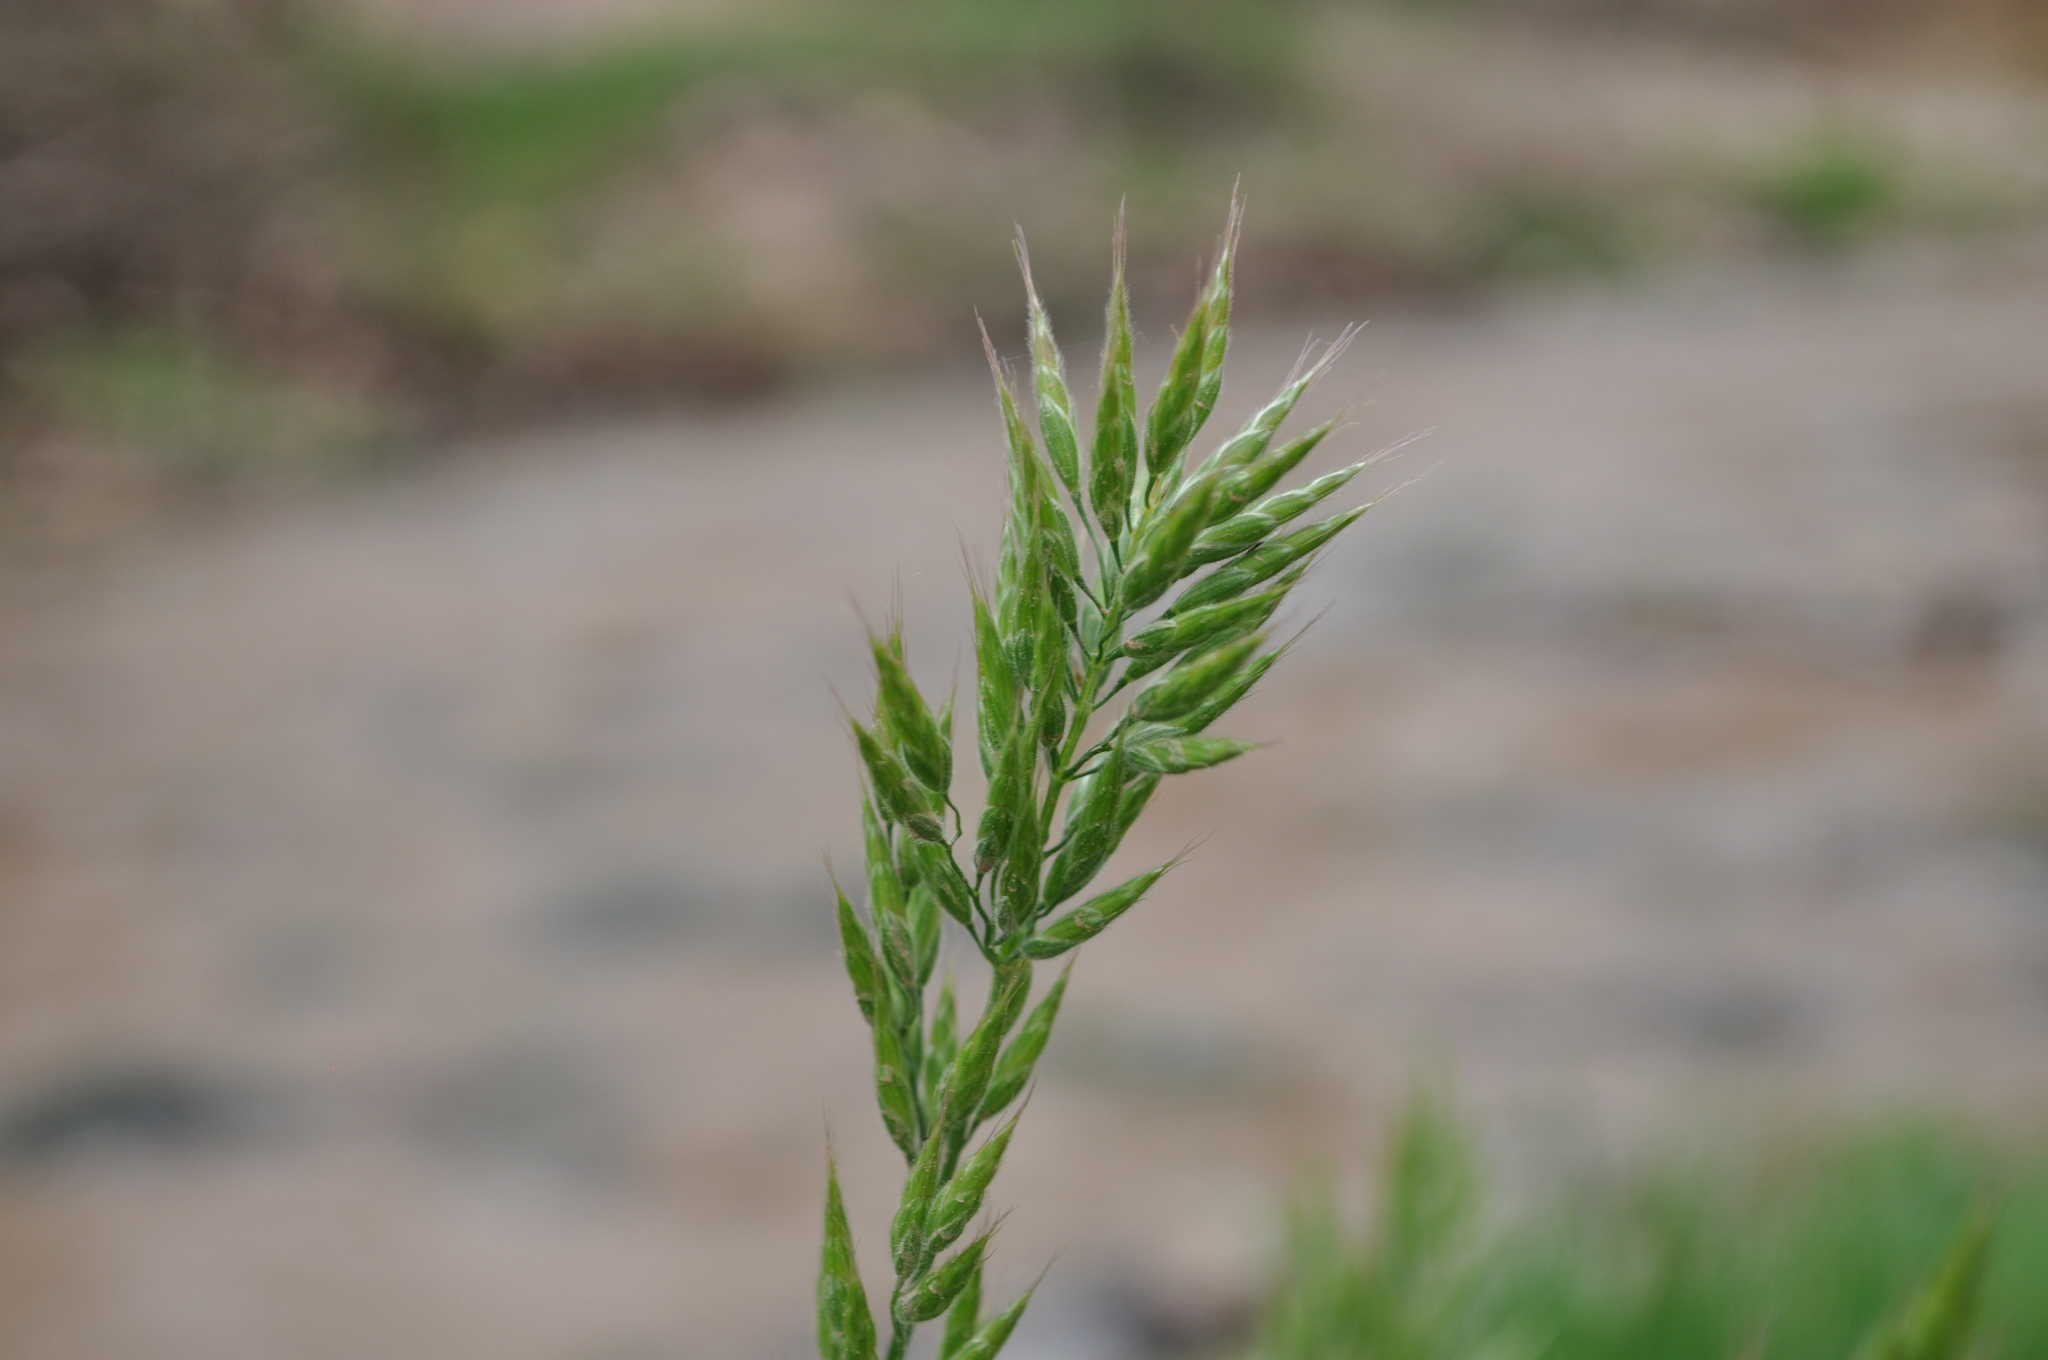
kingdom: Plantae
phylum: Tracheophyta
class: Liliopsida
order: Poales
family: Poaceae
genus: Bromus
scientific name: Bromus hordeaceus
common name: Soft brome
